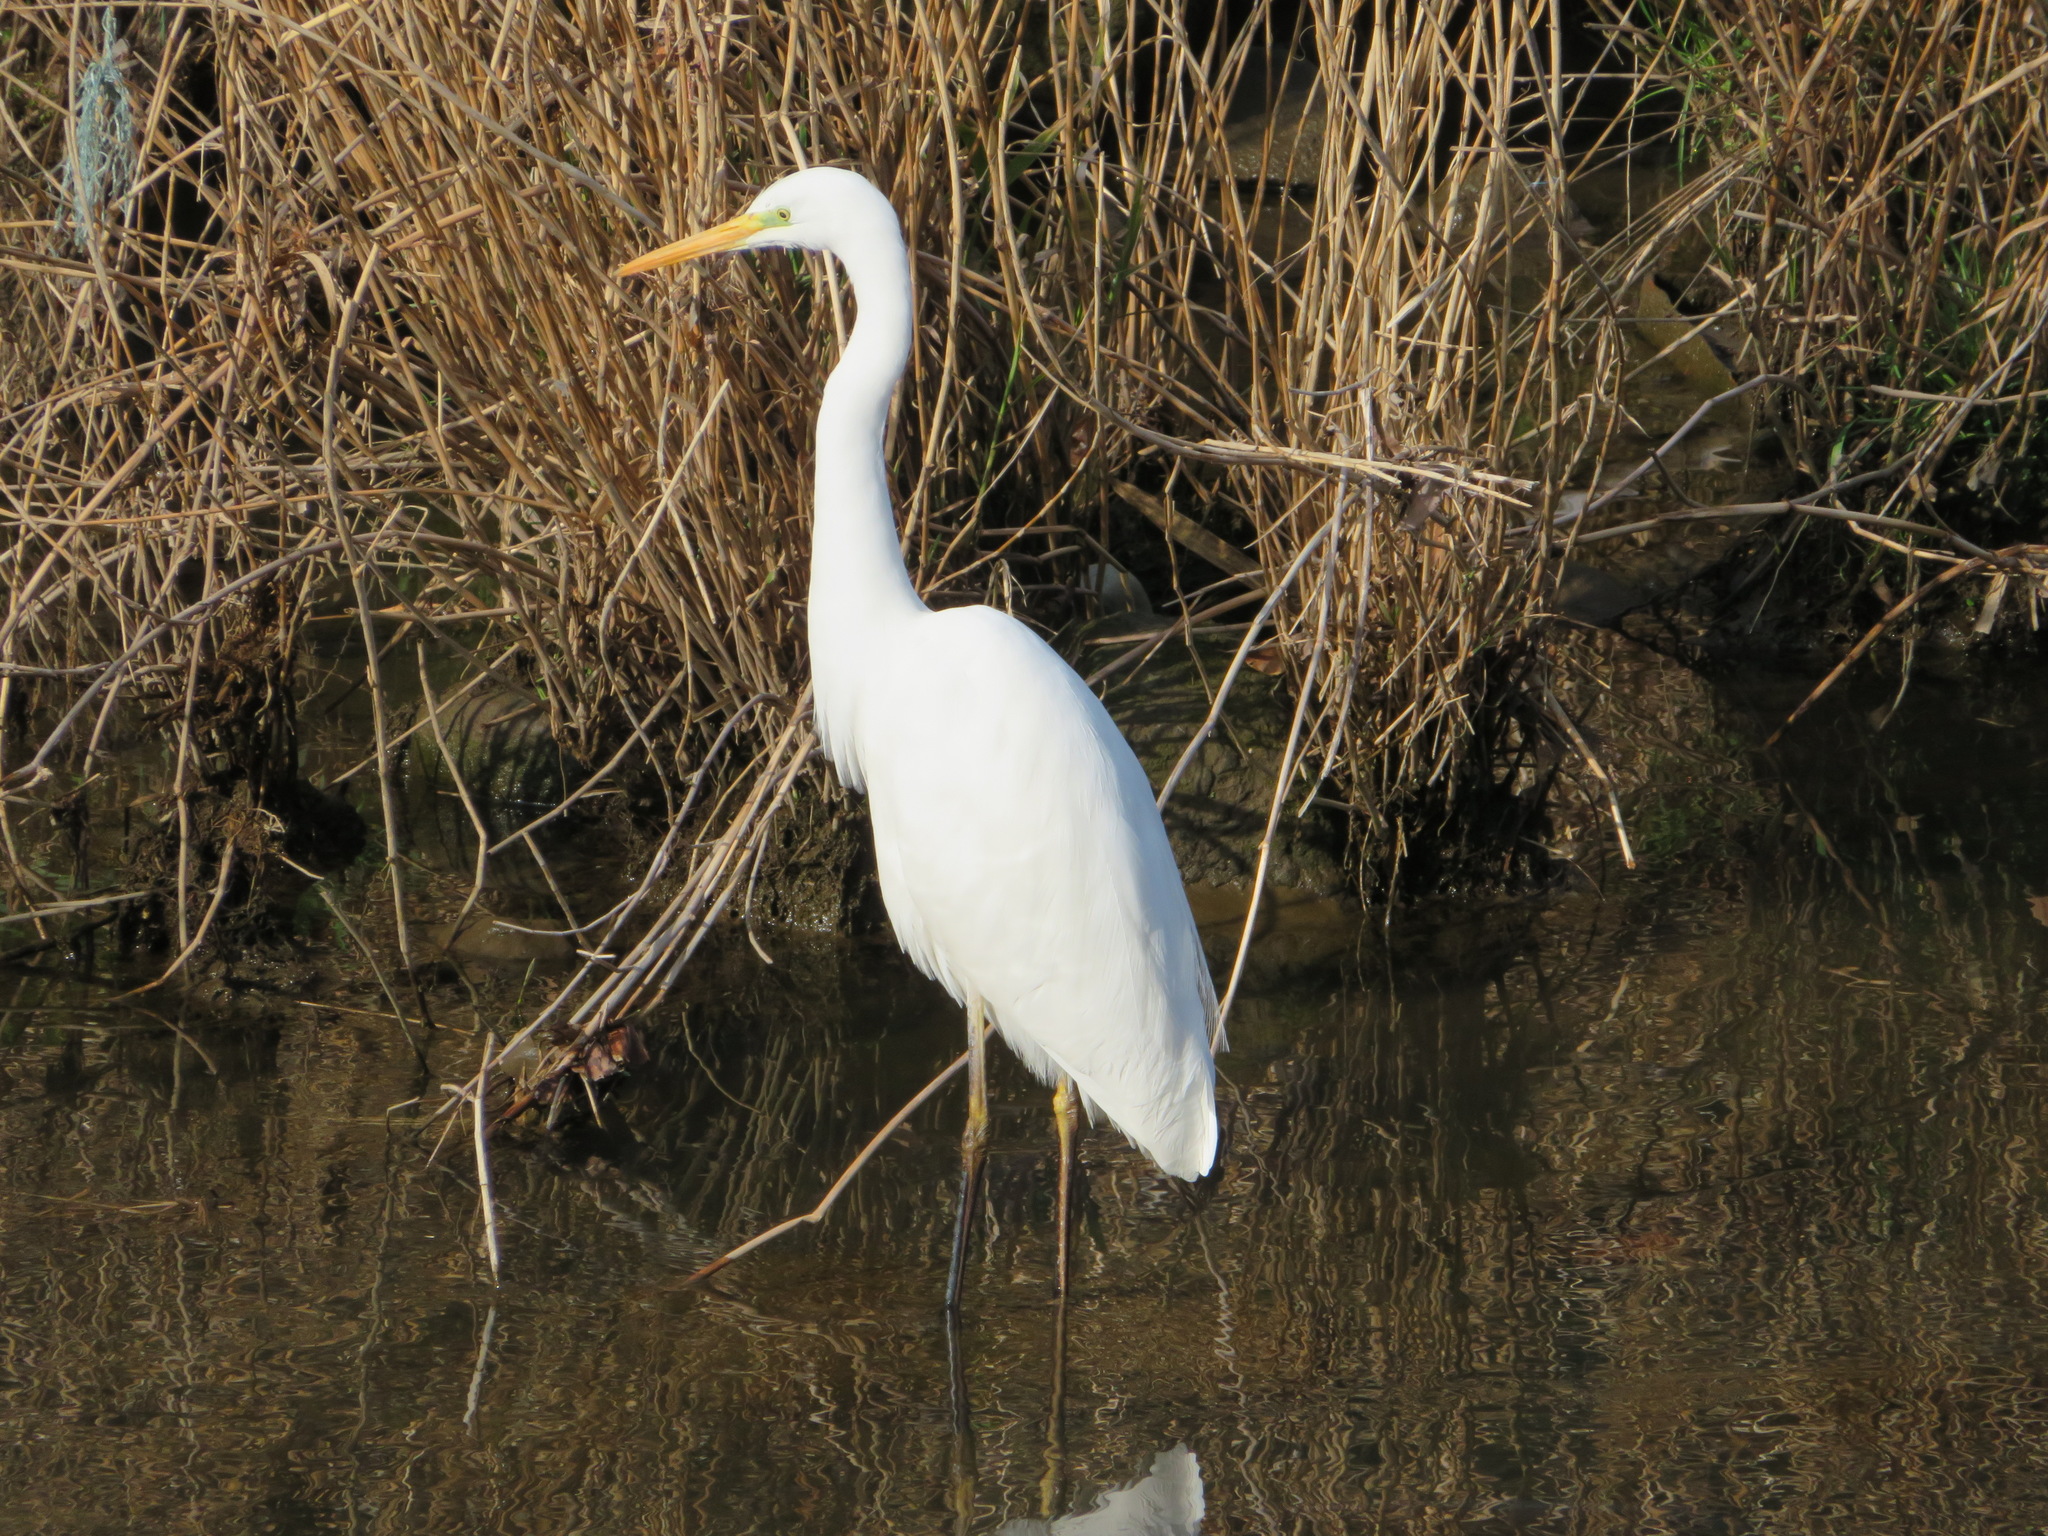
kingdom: Animalia
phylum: Chordata
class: Aves
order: Pelecaniformes
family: Ardeidae
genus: Ardea
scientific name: Ardea alba
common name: Great egret
